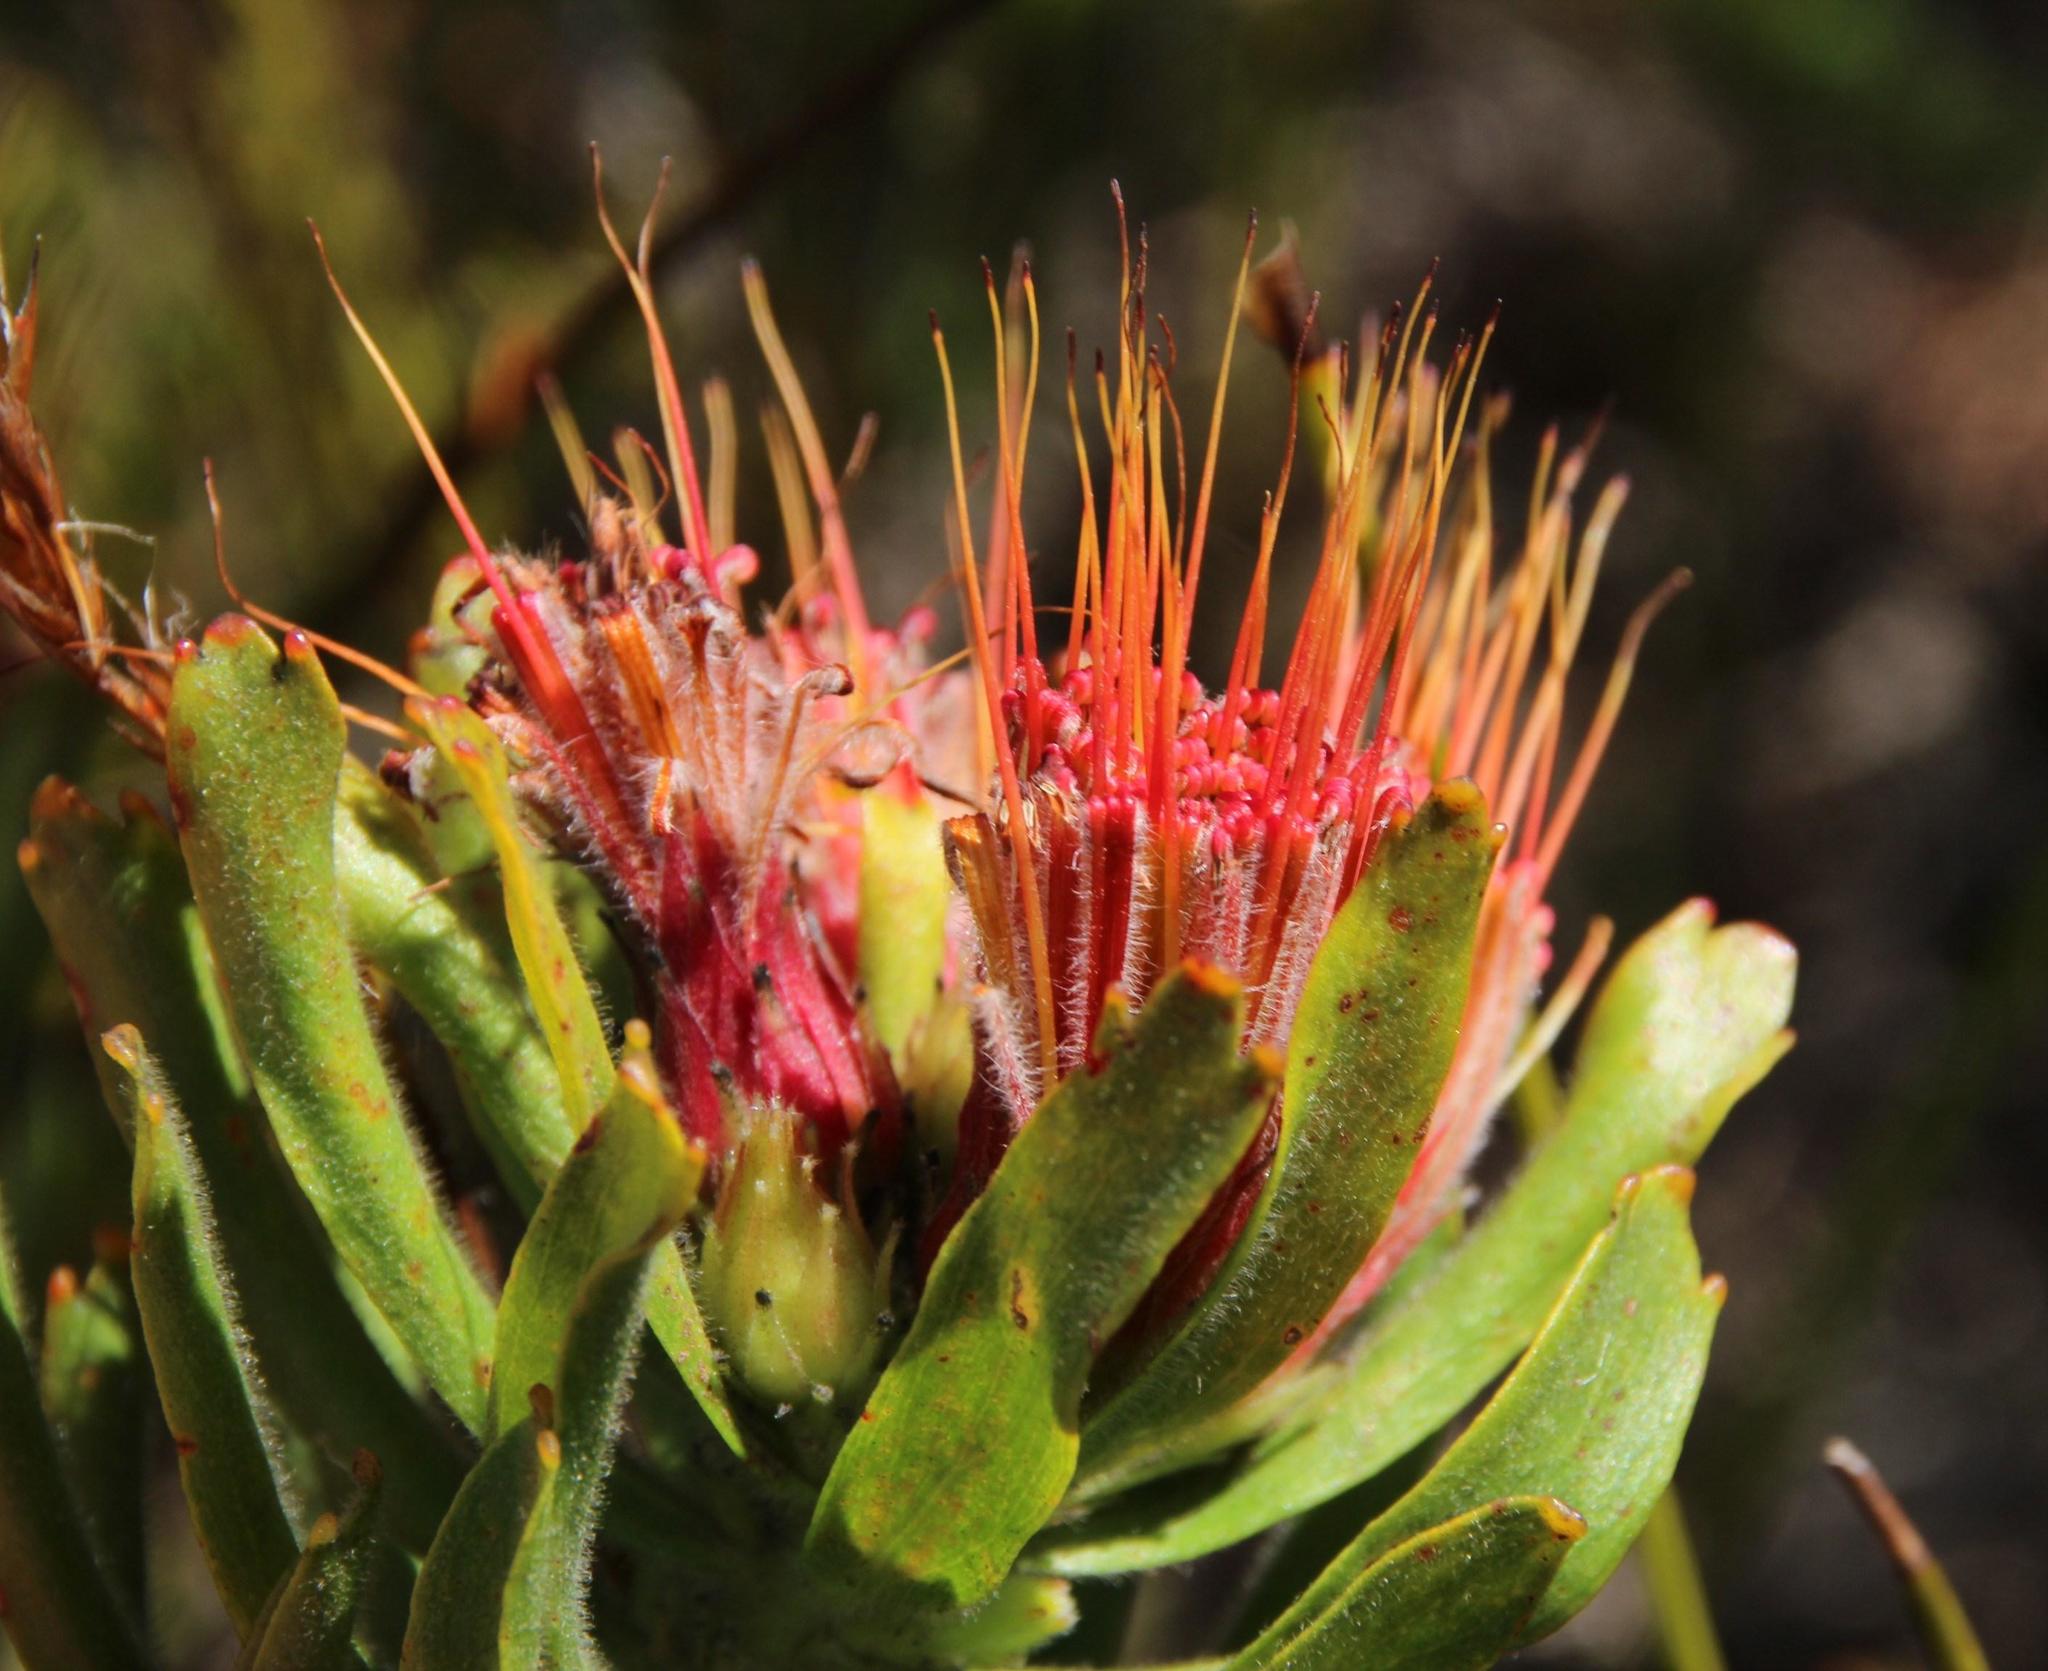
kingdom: Plantae
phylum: Tracheophyta
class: Magnoliopsida
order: Proteales
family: Proteaceae
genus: Leucospermum
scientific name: Leucospermum oleifolium
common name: Matches
